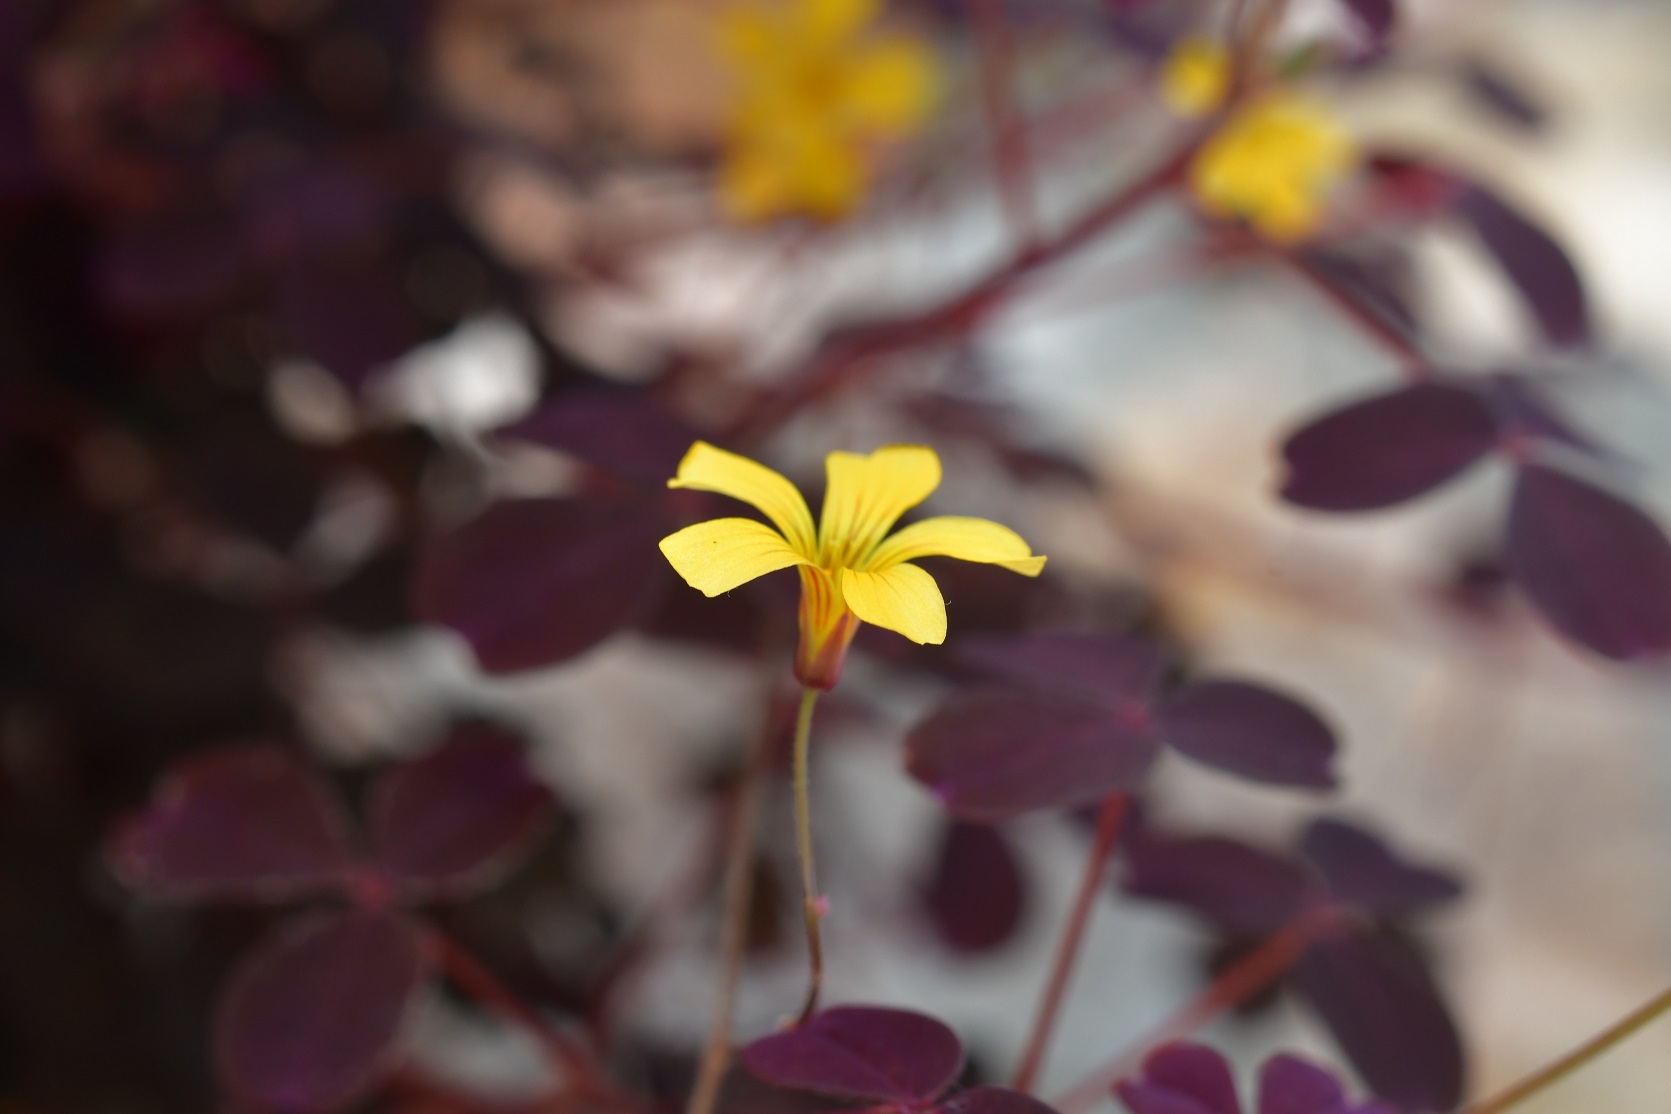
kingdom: Plantae
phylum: Tracheophyta
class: Magnoliopsida
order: Oxalidales
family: Oxalidaceae
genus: Oxalis
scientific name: Oxalis spiralis
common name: Spiral sorrel
